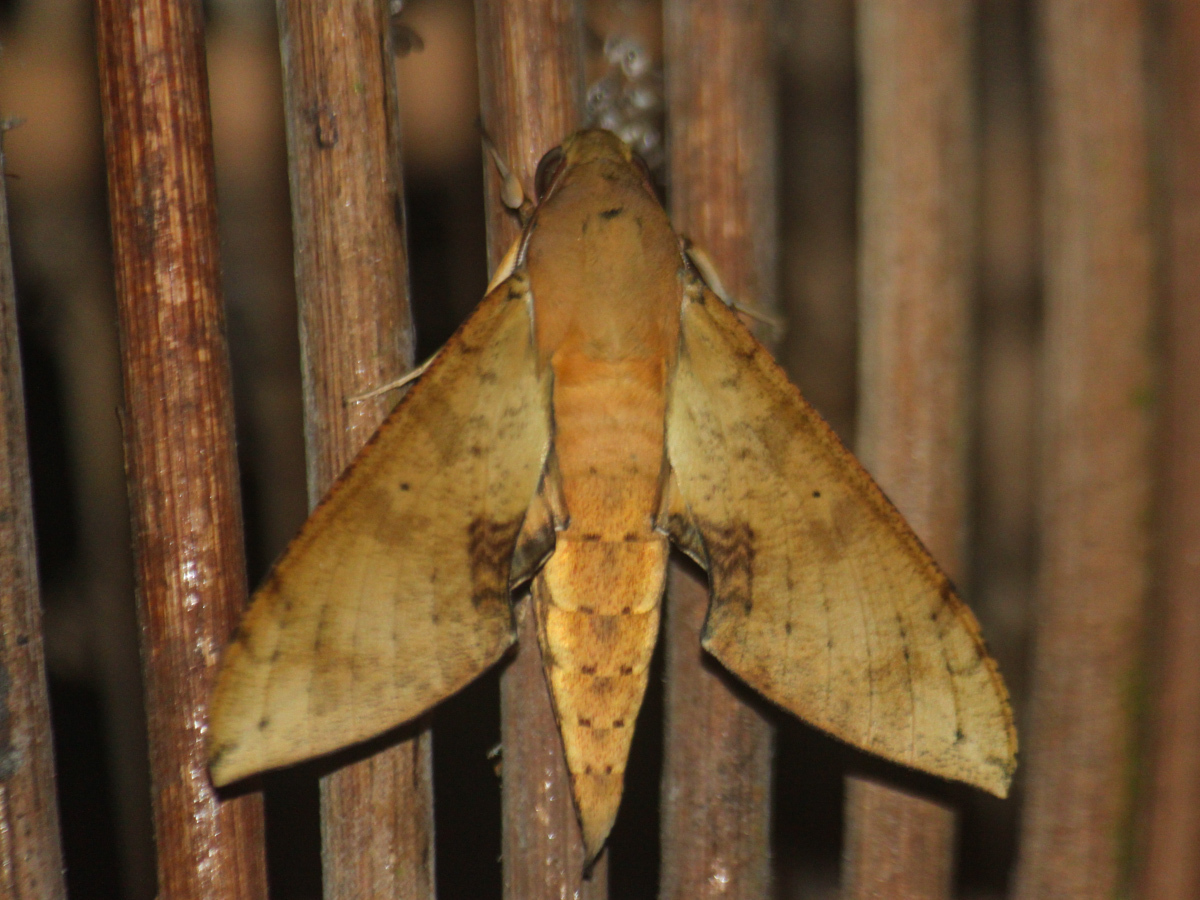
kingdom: Animalia
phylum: Arthropoda
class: Insecta
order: Lepidoptera
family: Sphingidae
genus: Cechenena
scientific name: Cechenena chimaera
